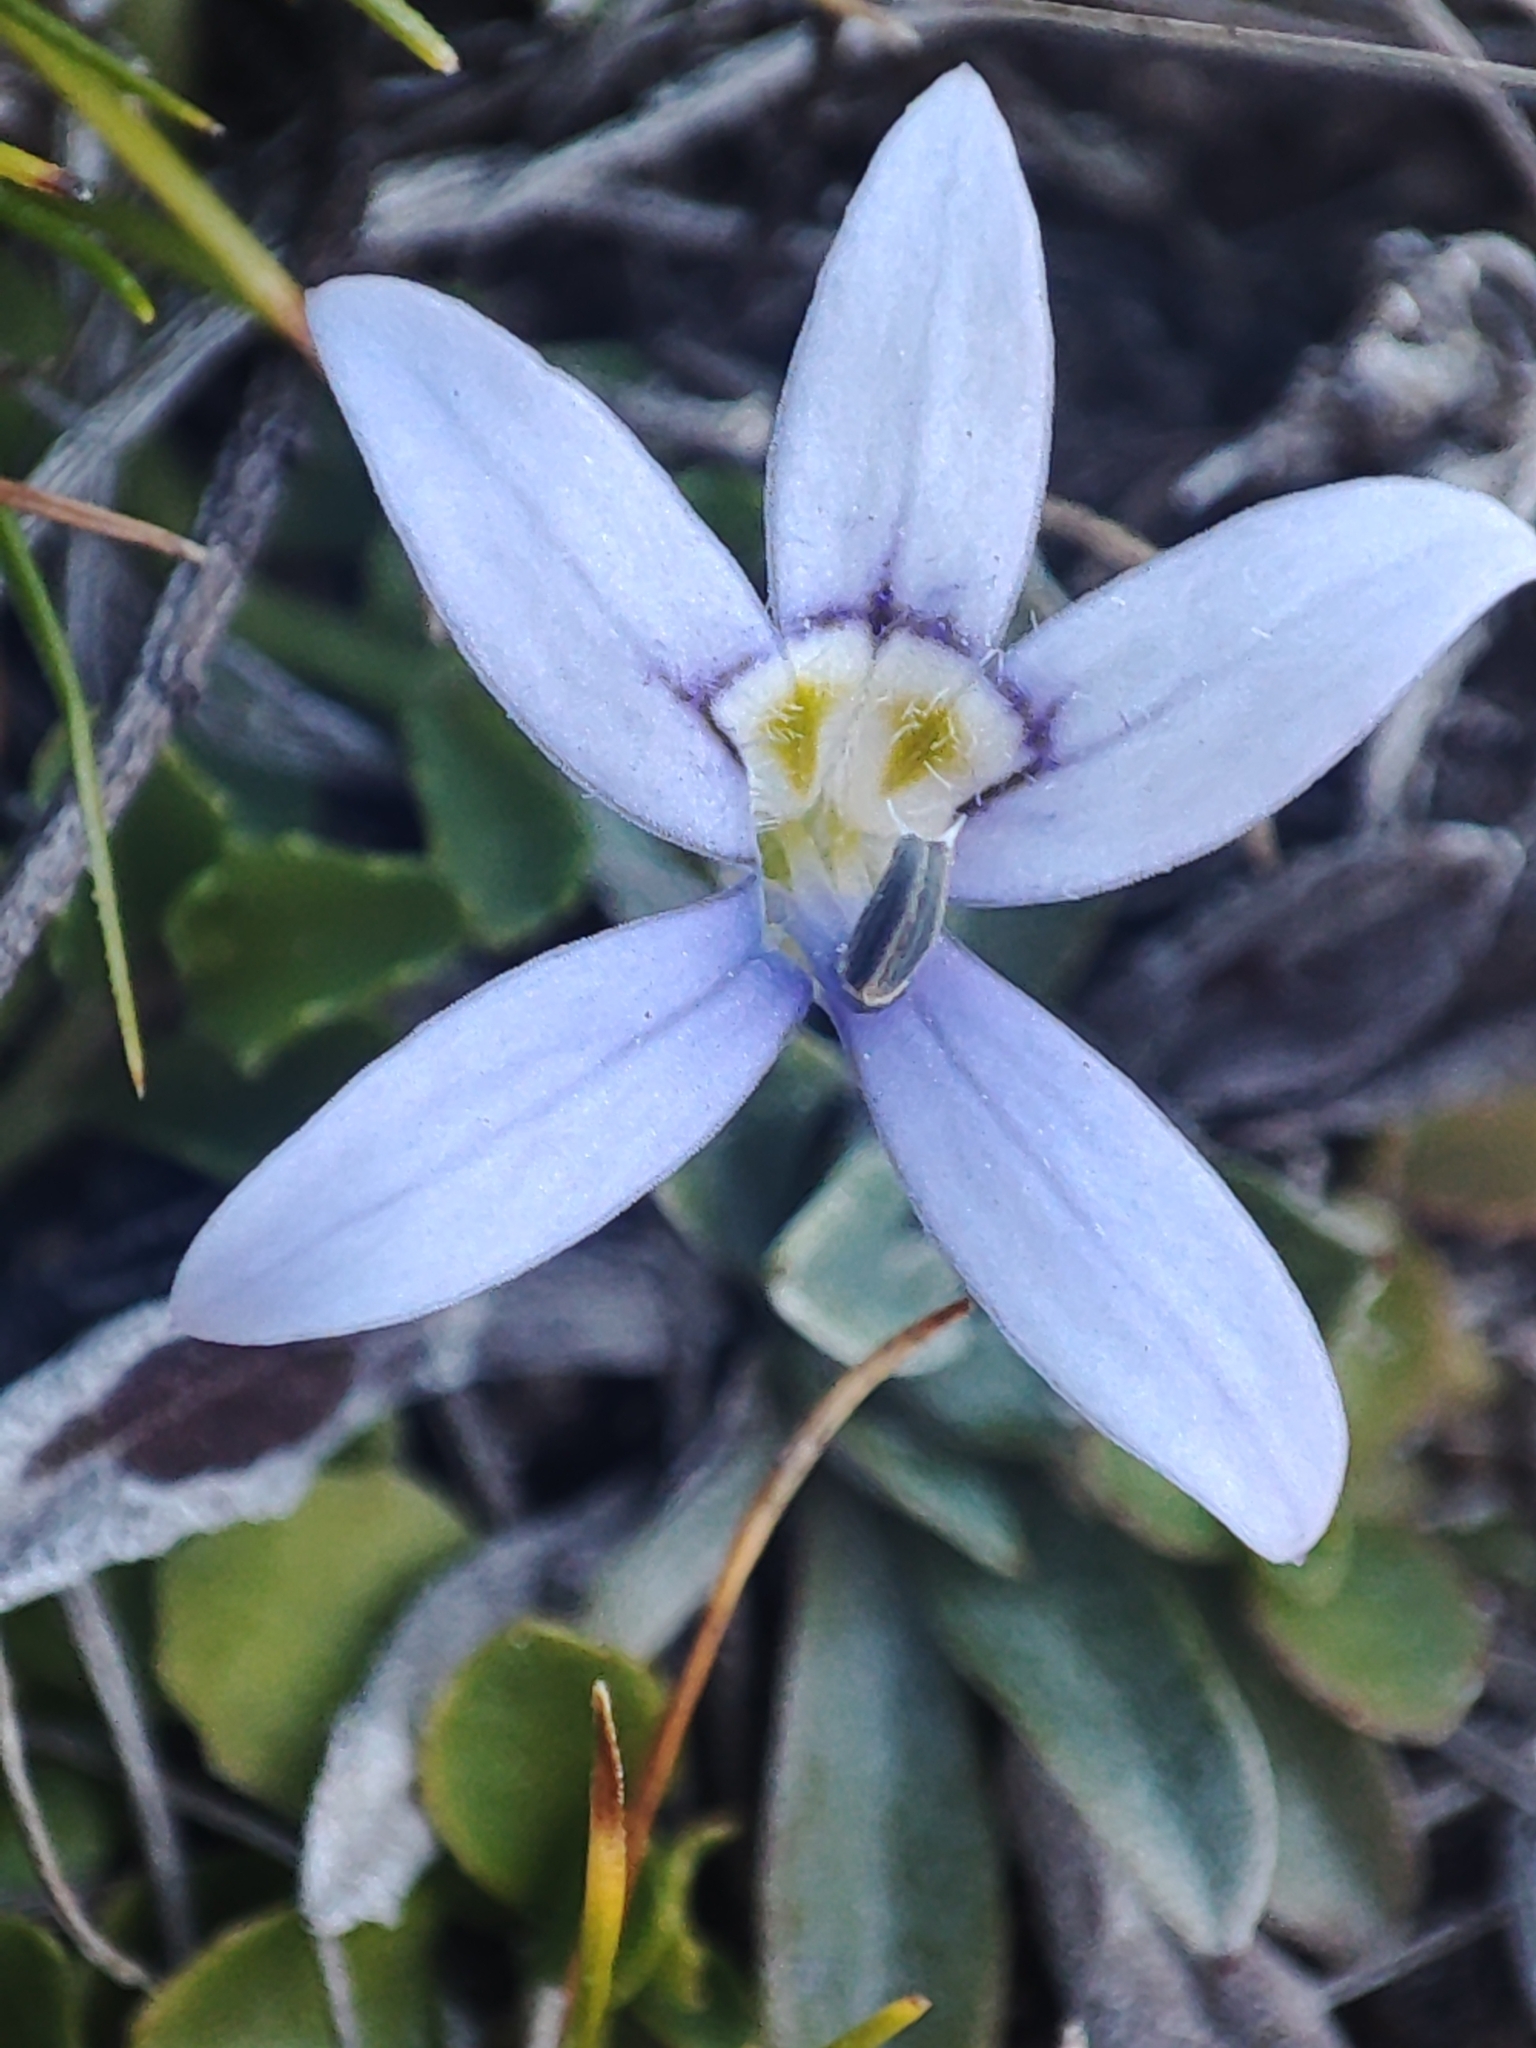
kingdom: Plantae
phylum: Tracheophyta
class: Magnoliopsida
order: Asterales
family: Campanulaceae
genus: Isotoma
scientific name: Isotoma fluviatilis
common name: Isotoma
